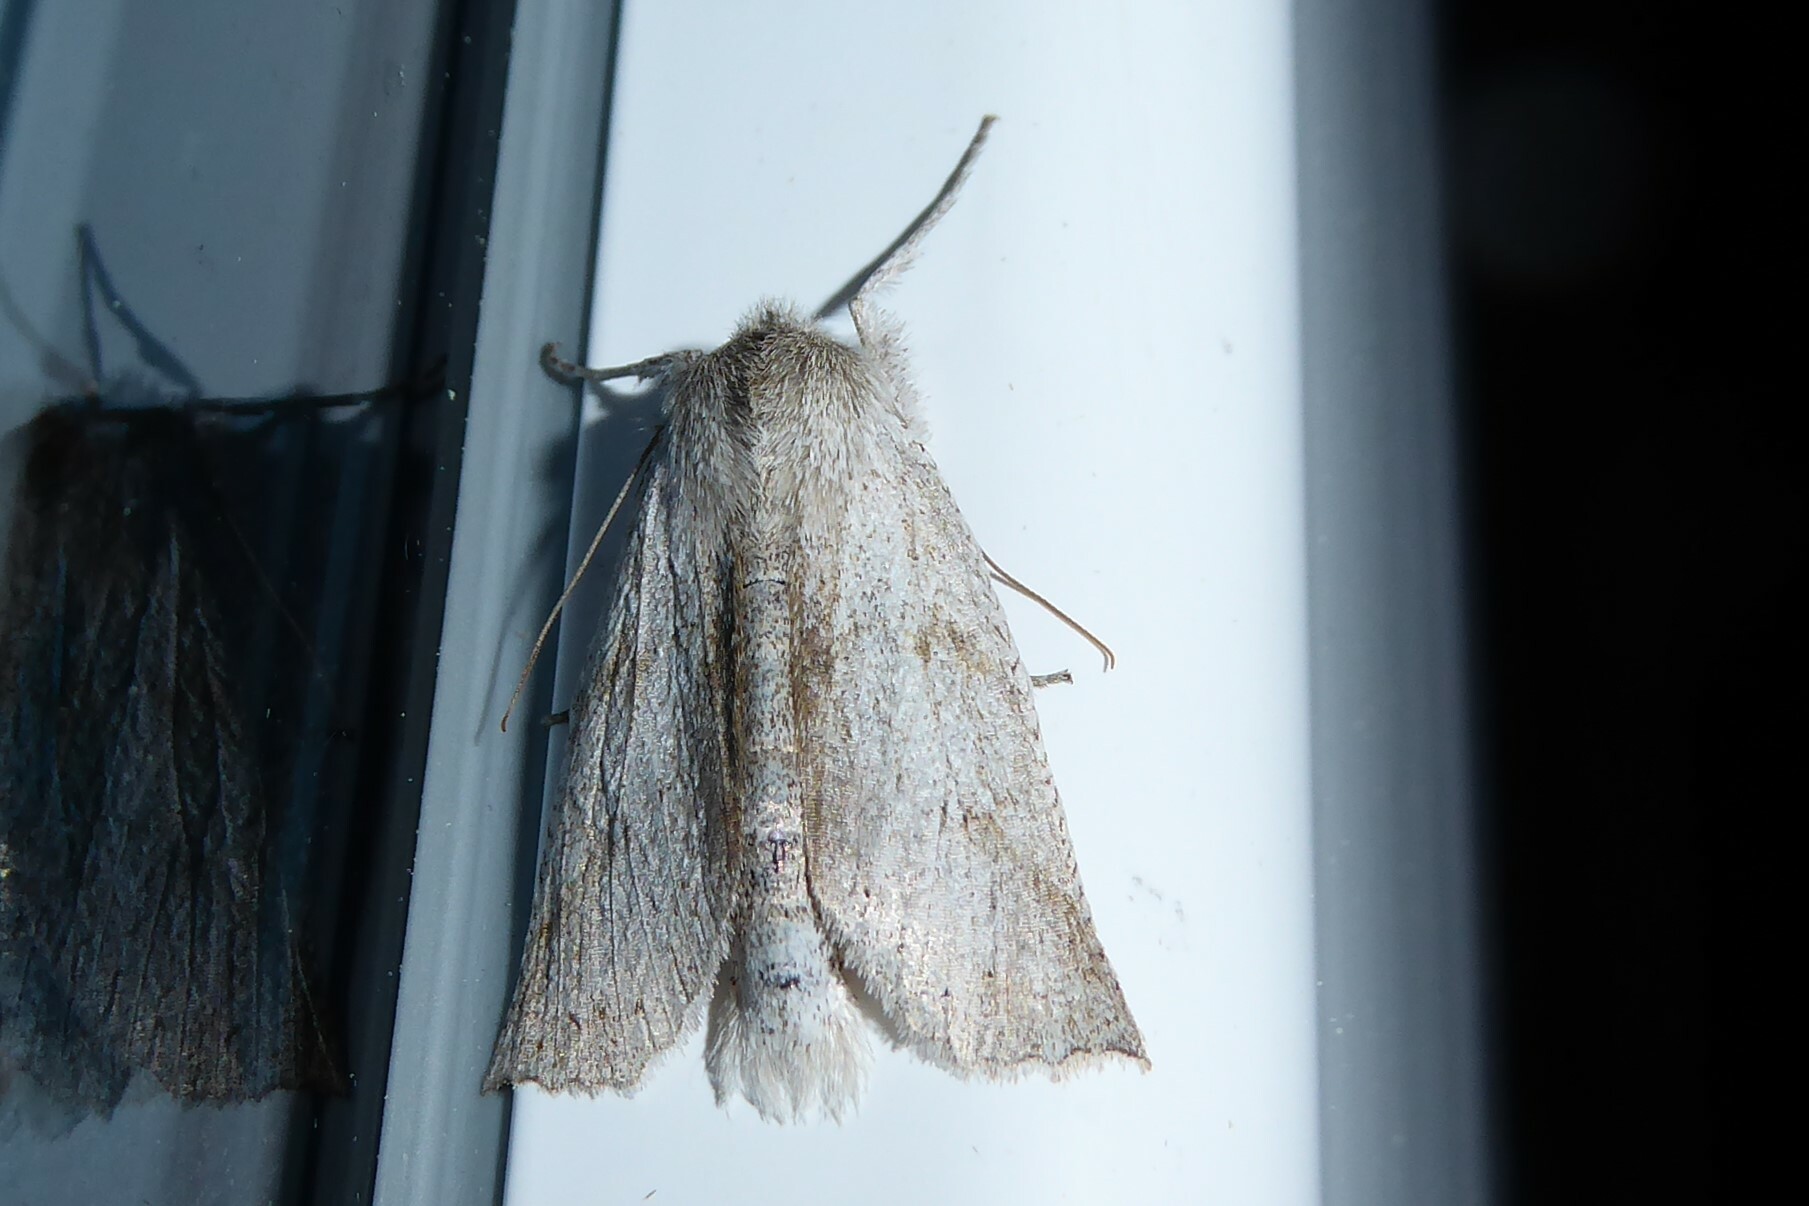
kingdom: Animalia
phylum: Arthropoda
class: Insecta
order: Lepidoptera
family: Geometridae
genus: Declana
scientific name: Declana leptomera
